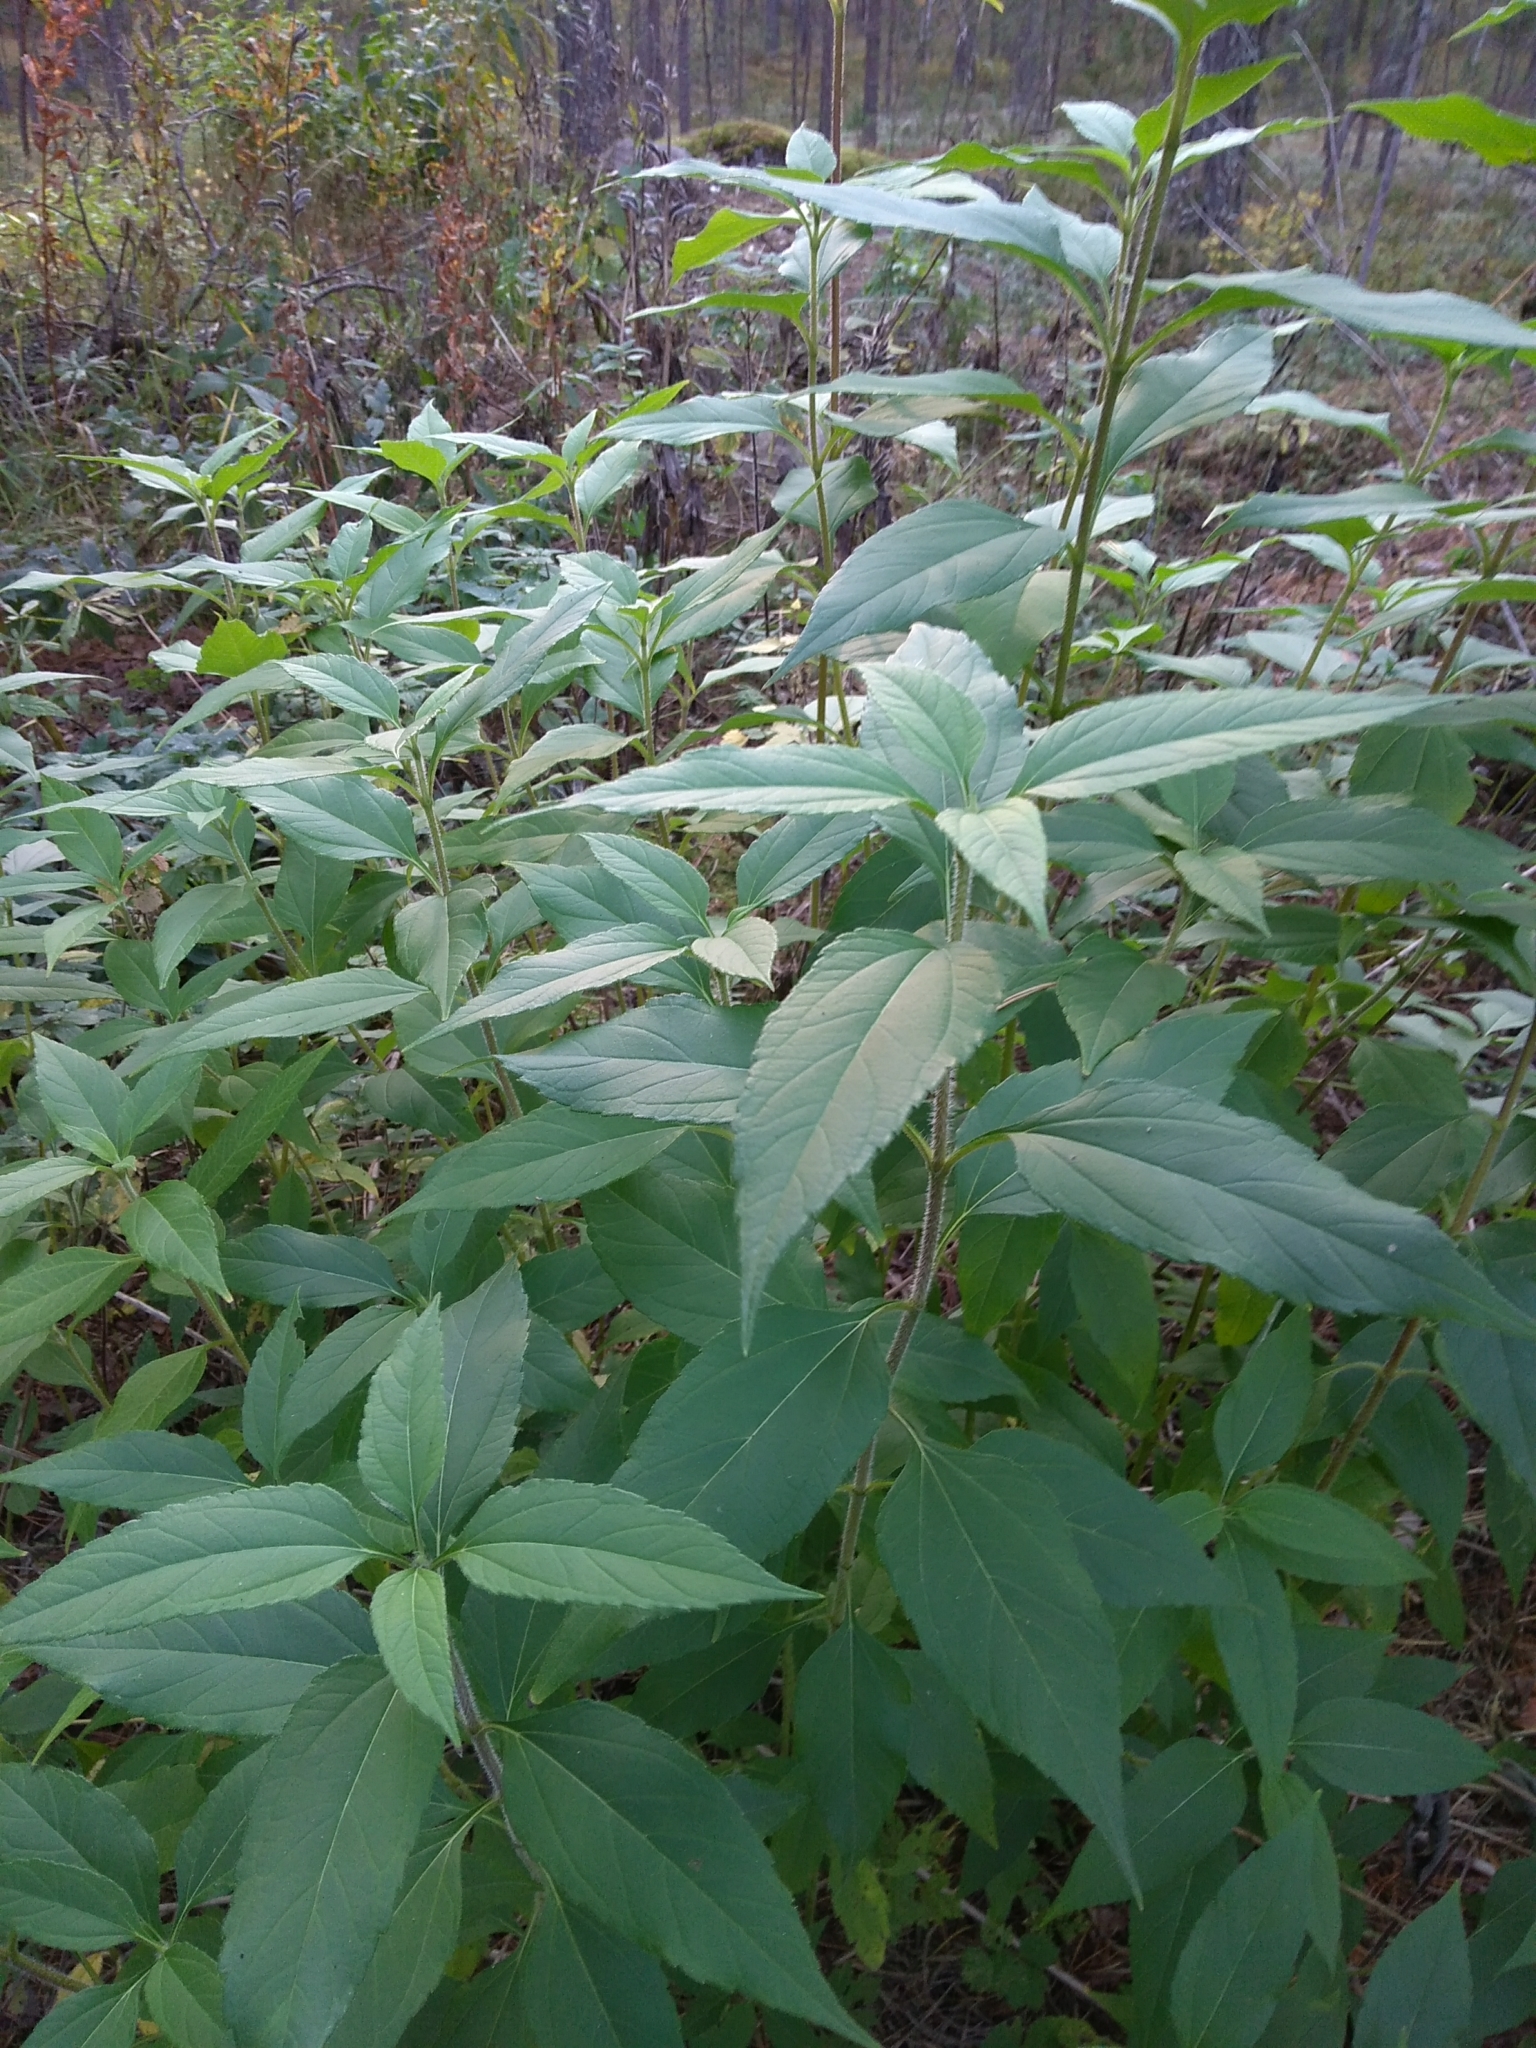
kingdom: Plantae
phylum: Tracheophyta
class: Magnoliopsida
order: Asterales
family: Asteraceae
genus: Helianthus
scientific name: Helianthus tuberosus
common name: Jerusalem artichoke
